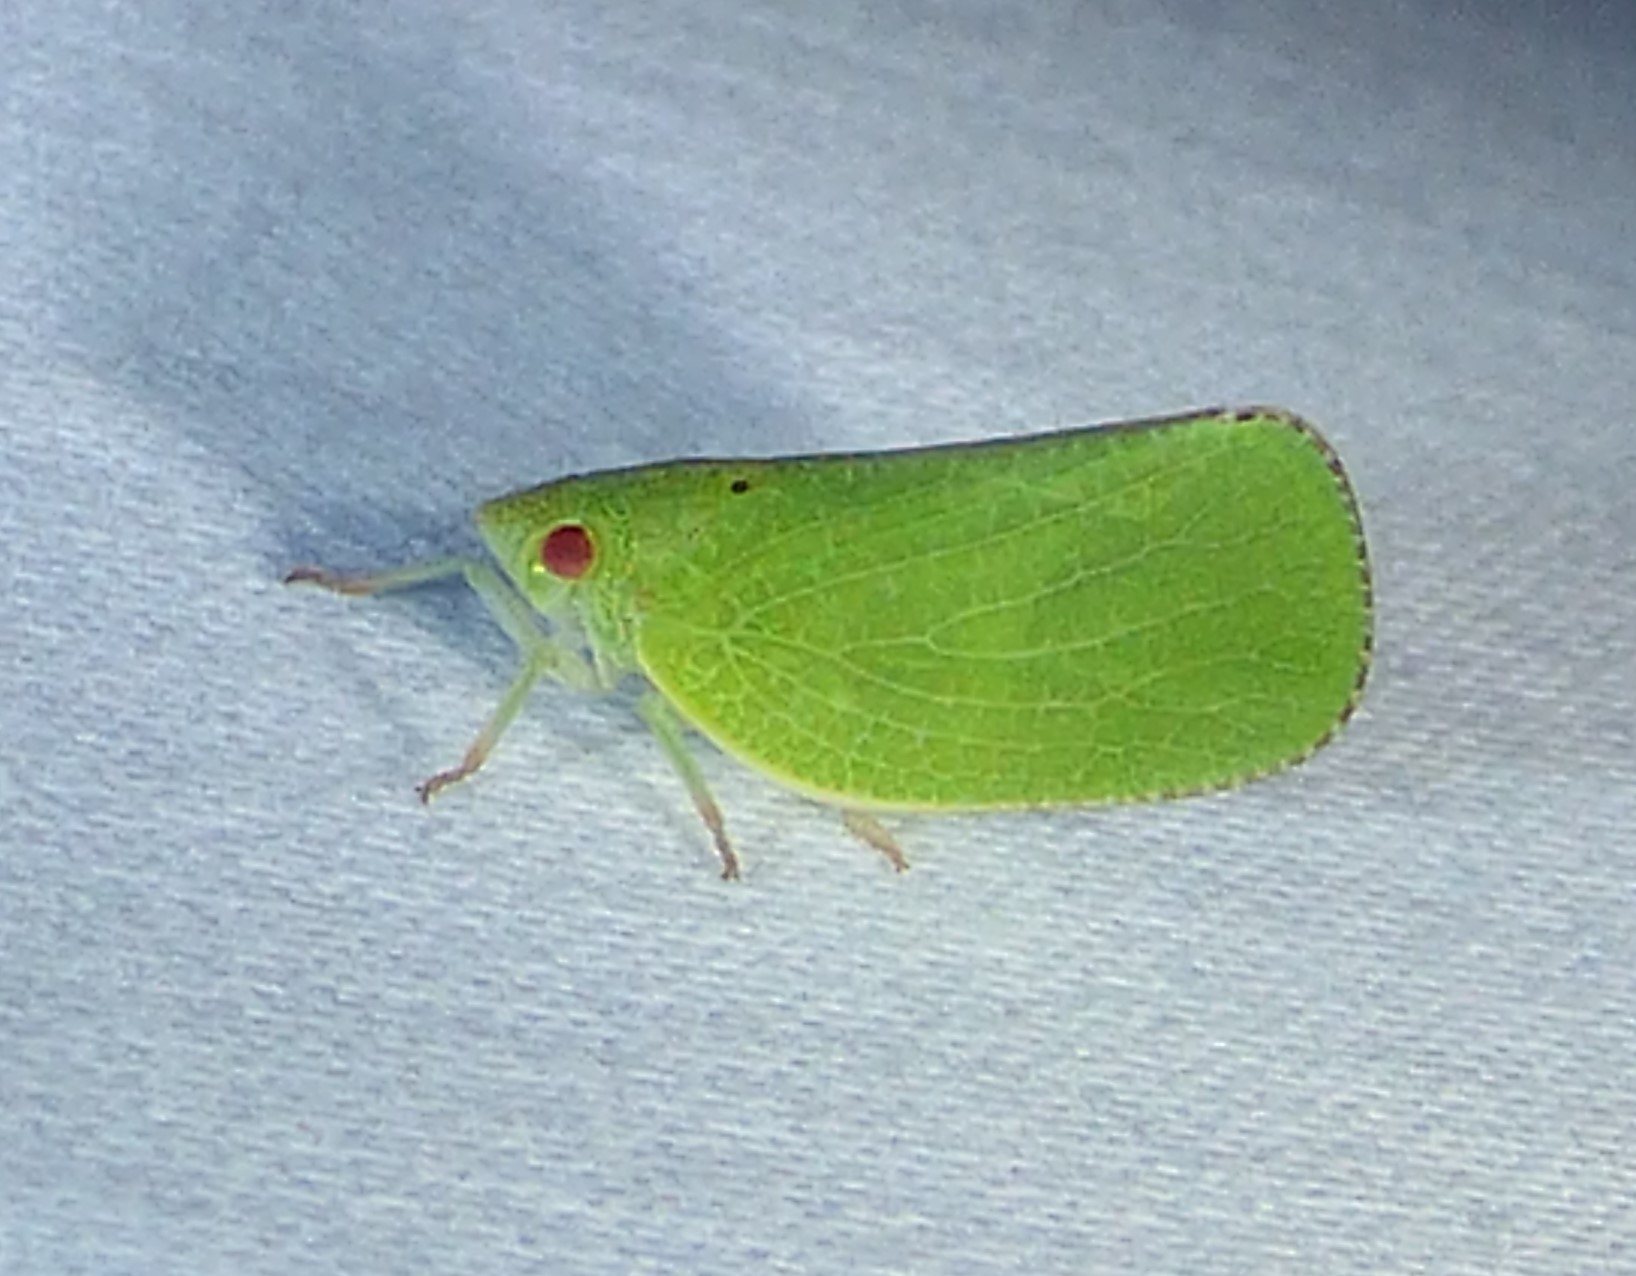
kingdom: Animalia
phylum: Arthropoda
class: Insecta
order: Hemiptera
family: Acanaloniidae
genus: Acanalonia
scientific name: Acanalonia conica
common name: Green cone-headed planthopper
